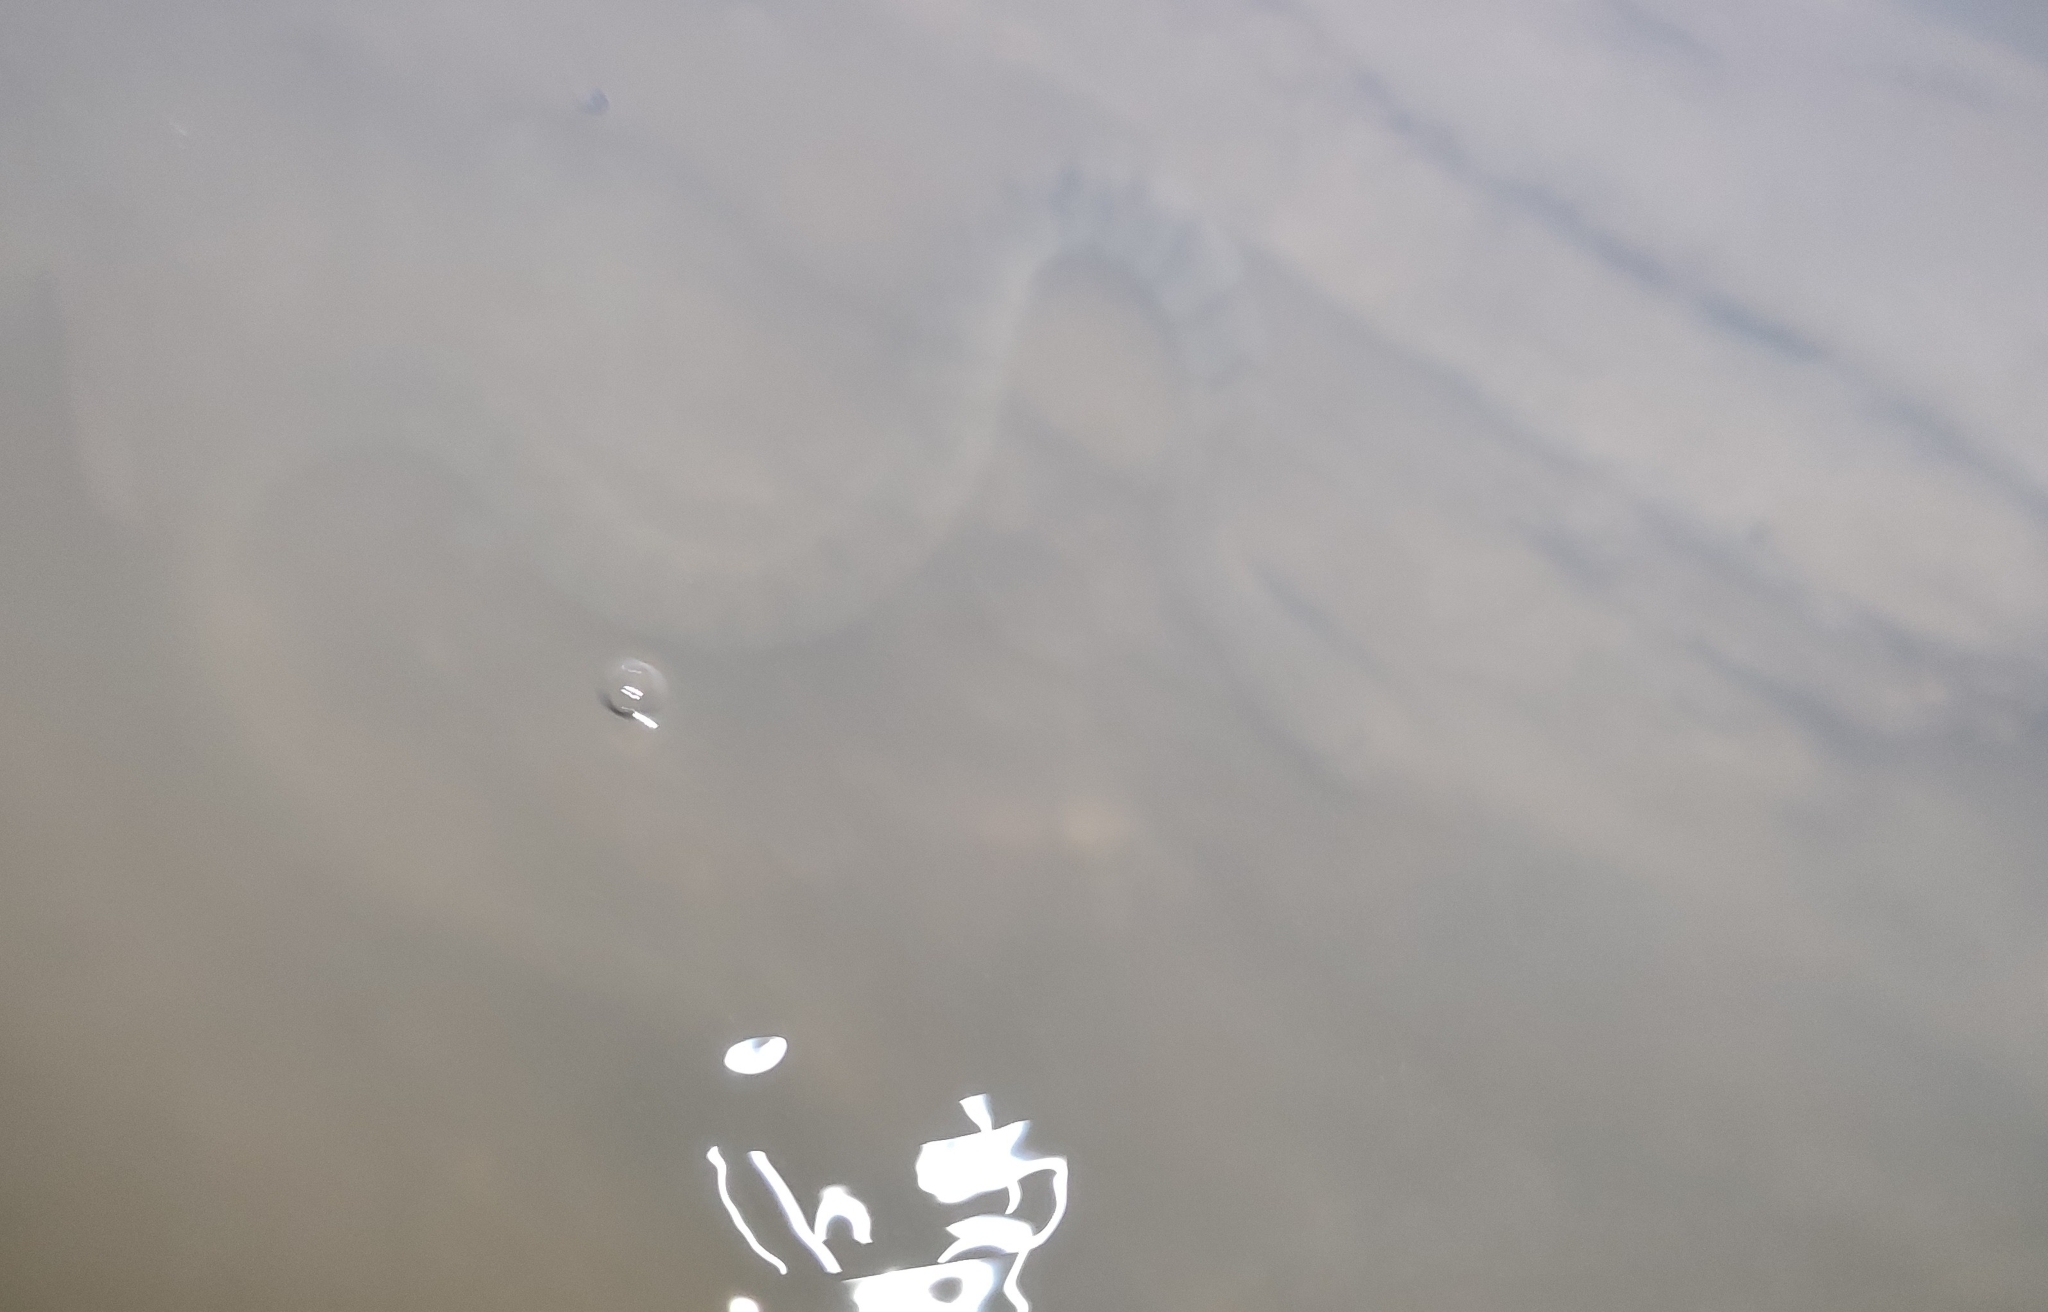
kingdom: Animalia
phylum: Chordata
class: Squamata
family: Homalopsidae
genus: Cerberus
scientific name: Cerberus schneiderii
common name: Southeast asian bockadam
